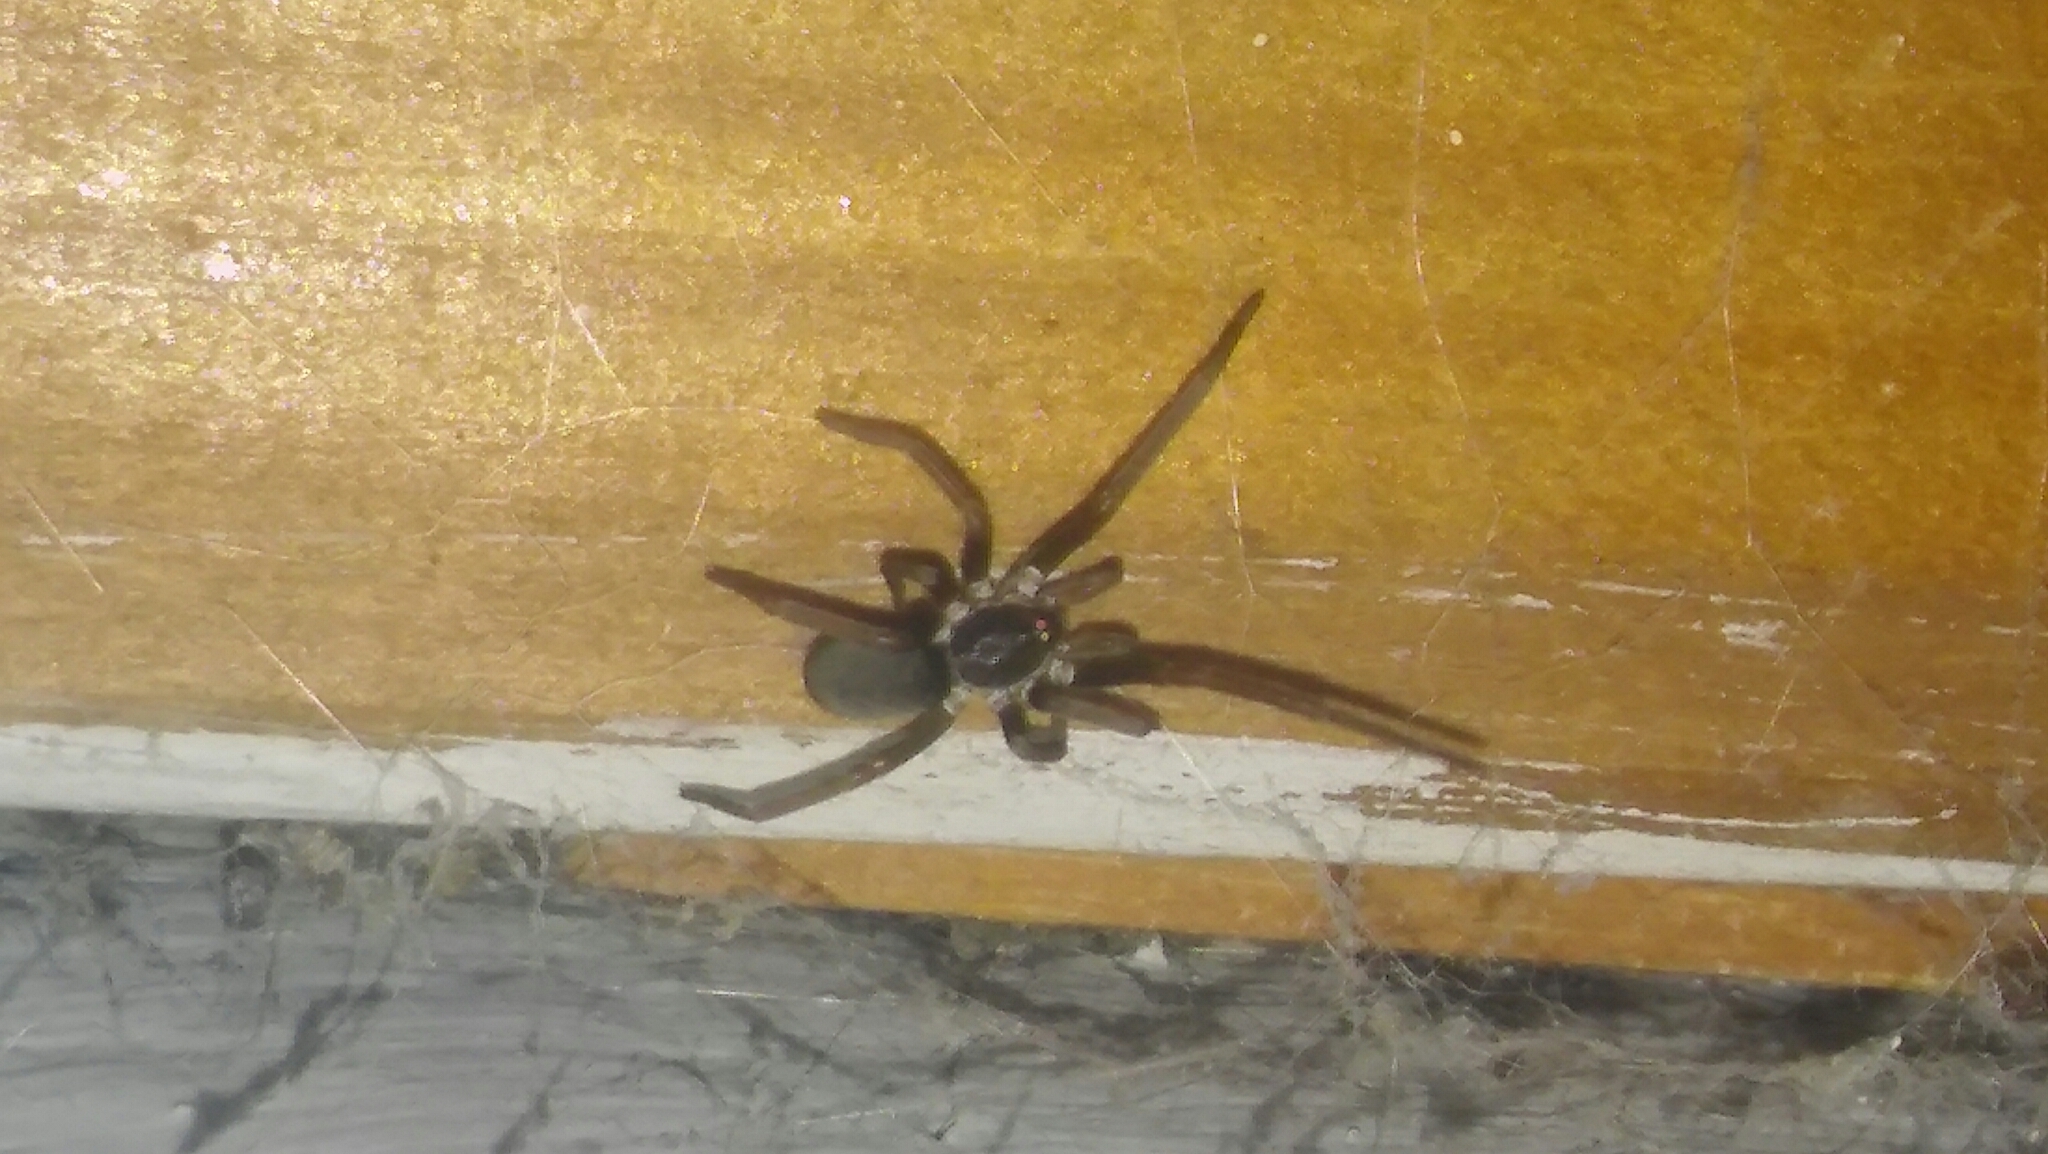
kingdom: Animalia
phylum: Arthropoda
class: Arachnida
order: Araneae
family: Filistatidae
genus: Kukulcania
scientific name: Kukulcania hibernalis
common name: Crevice weaver
